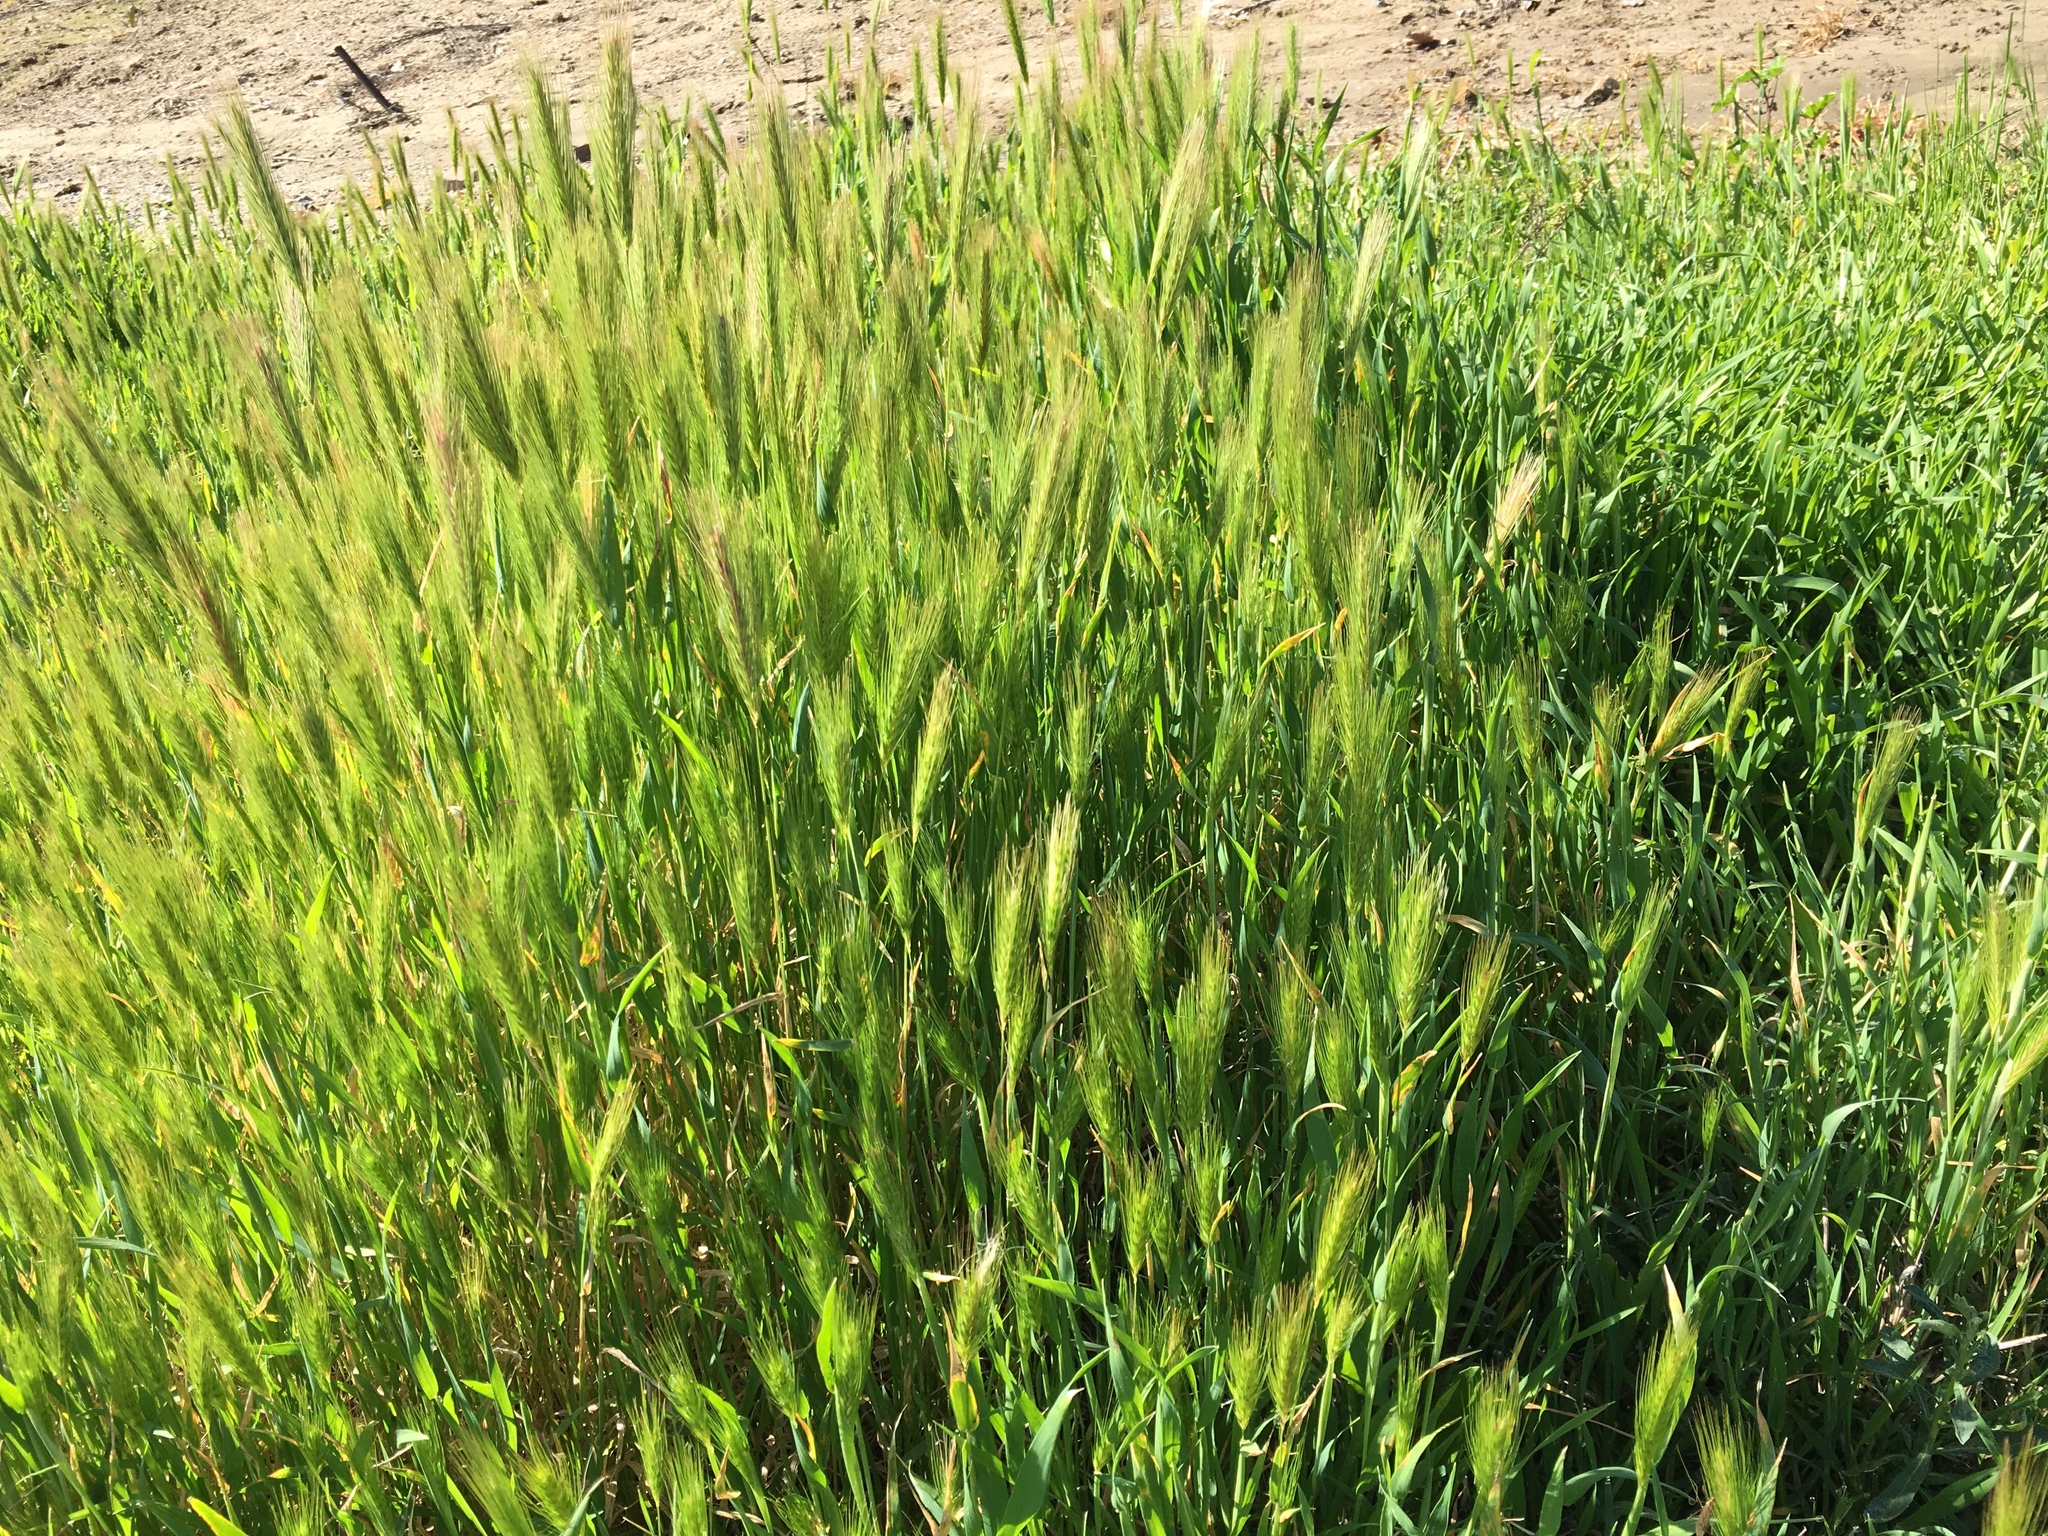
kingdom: Plantae
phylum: Tracheophyta
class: Liliopsida
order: Poales
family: Poaceae
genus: Hordeum
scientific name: Hordeum murinum
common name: Wall barley
